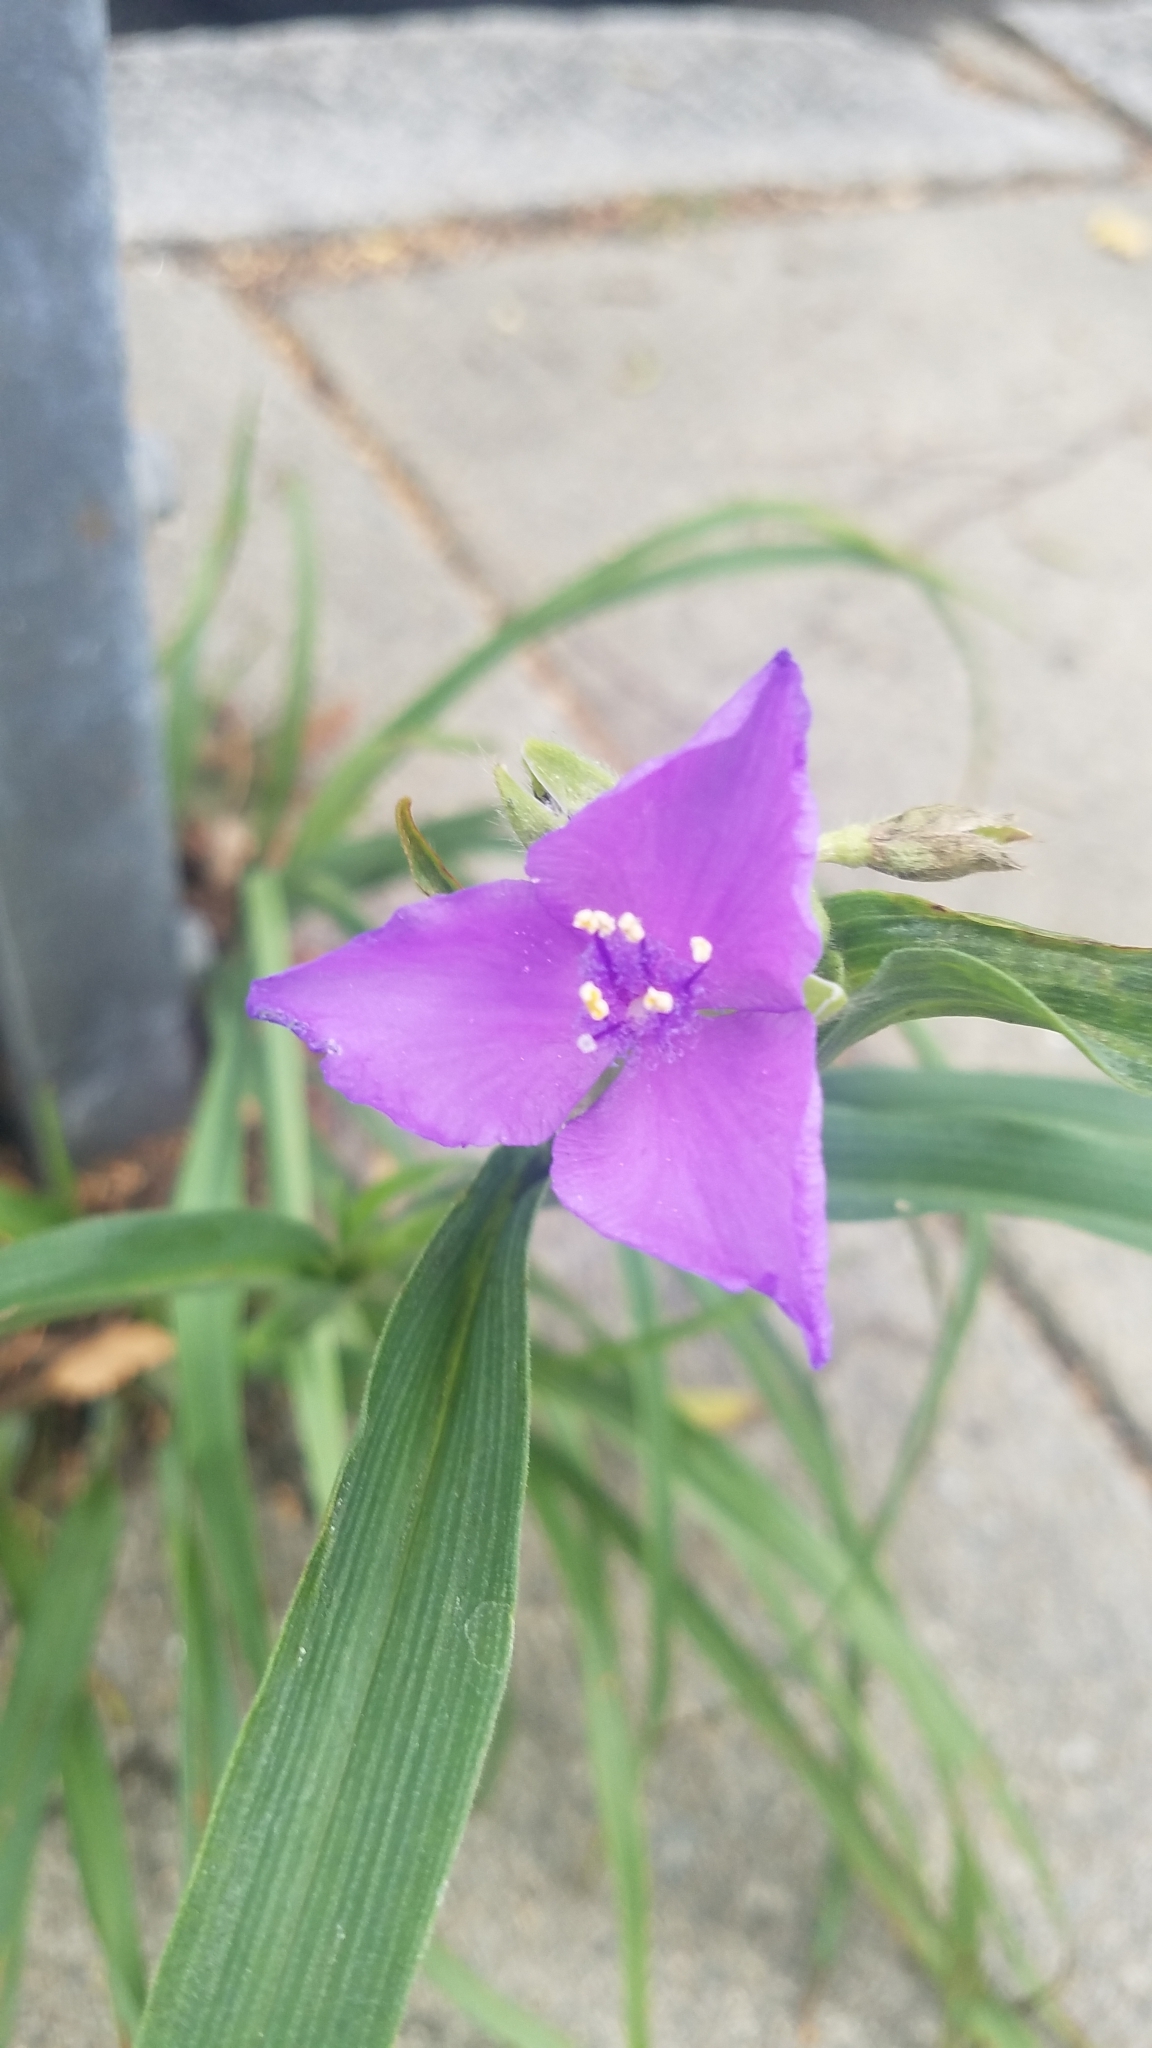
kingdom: Plantae
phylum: Tracheophyta
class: Liliopsida
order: Commelinales
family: Commelinaceae
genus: Tradescantia
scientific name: Tradescantia virginiana
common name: Spiderwort
